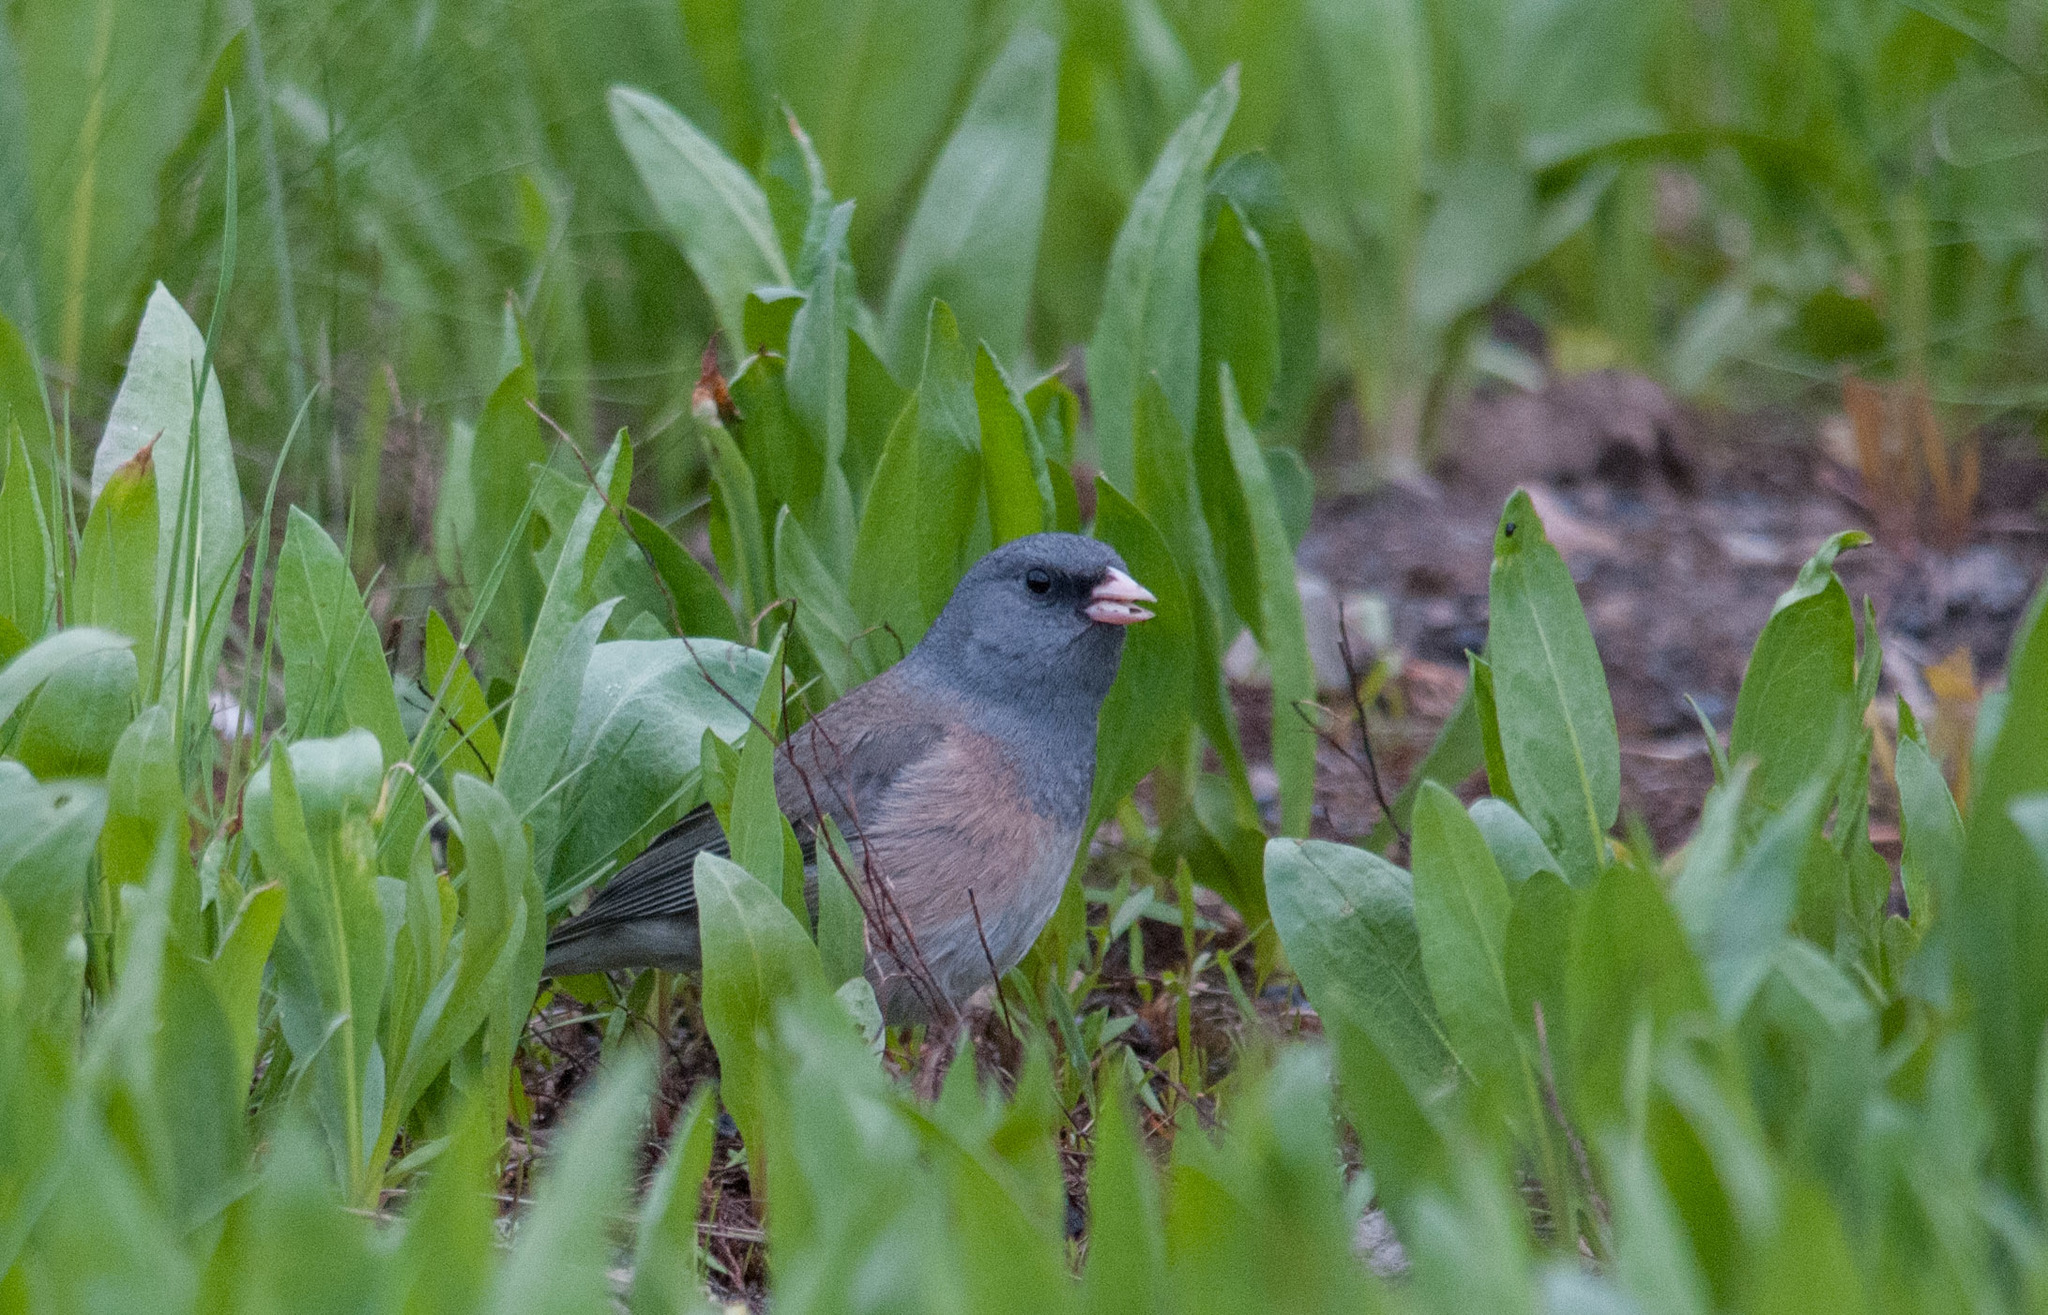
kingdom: Animalia
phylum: Chordata
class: Aves
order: Passeriformes
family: Passerellidae
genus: Junco
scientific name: Junco hyemalis
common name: Dark-eyed junco
